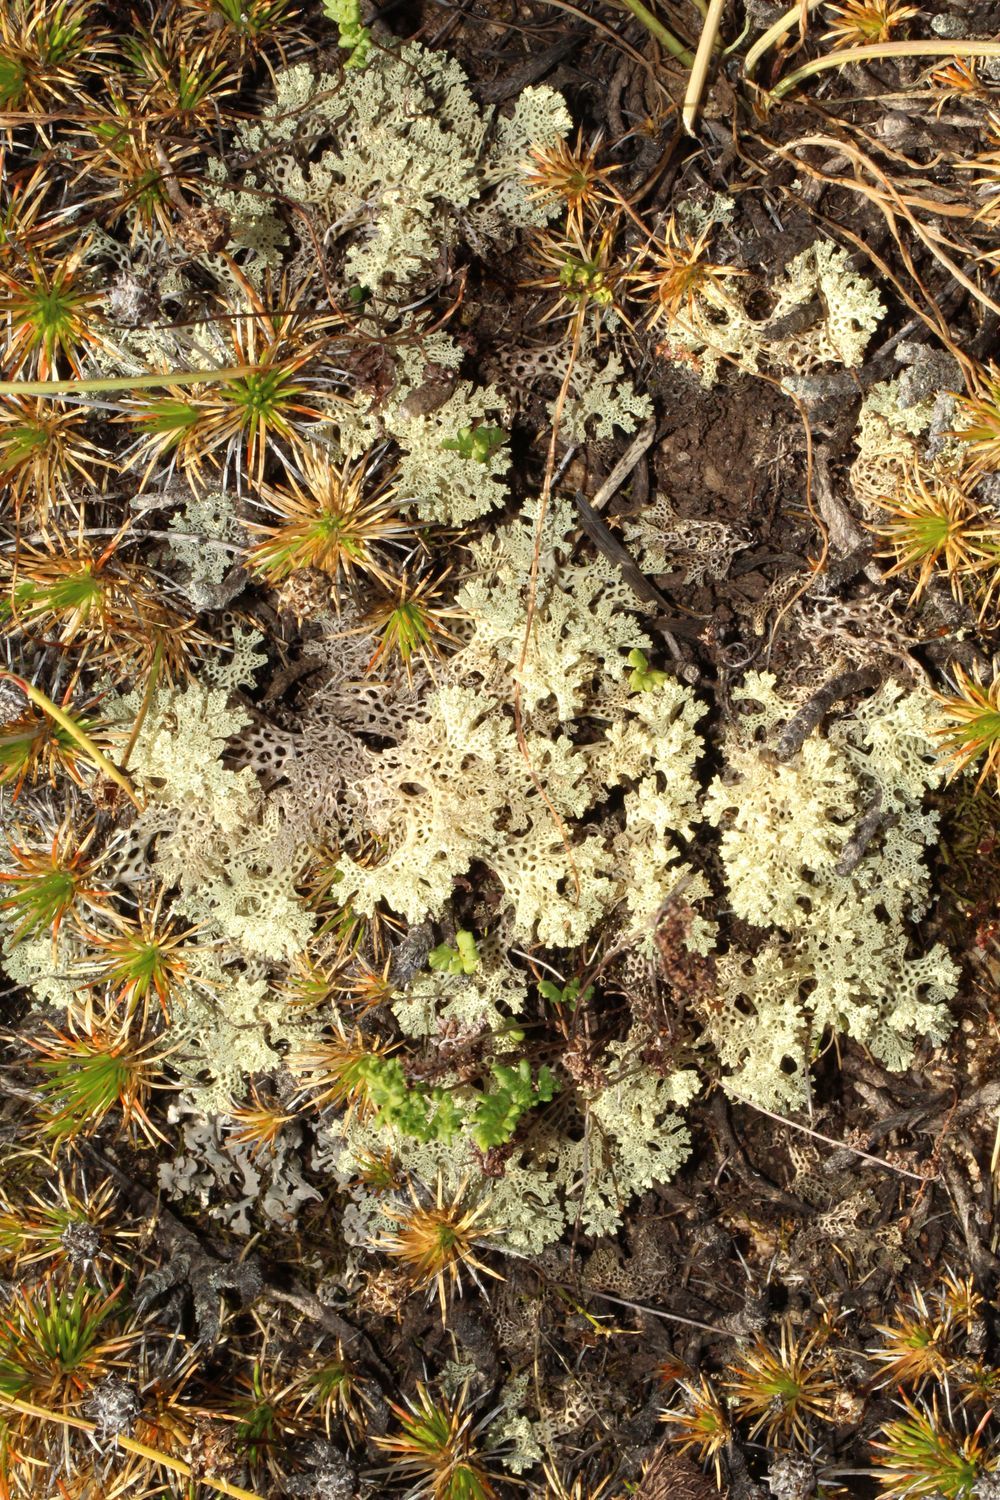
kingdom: Fungi
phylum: Ascomycota
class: Lecanoromycetes
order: Lecanorales
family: Cladoniaceae
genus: Pulchrocladia
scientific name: Pulchrocladia ferdinandii
